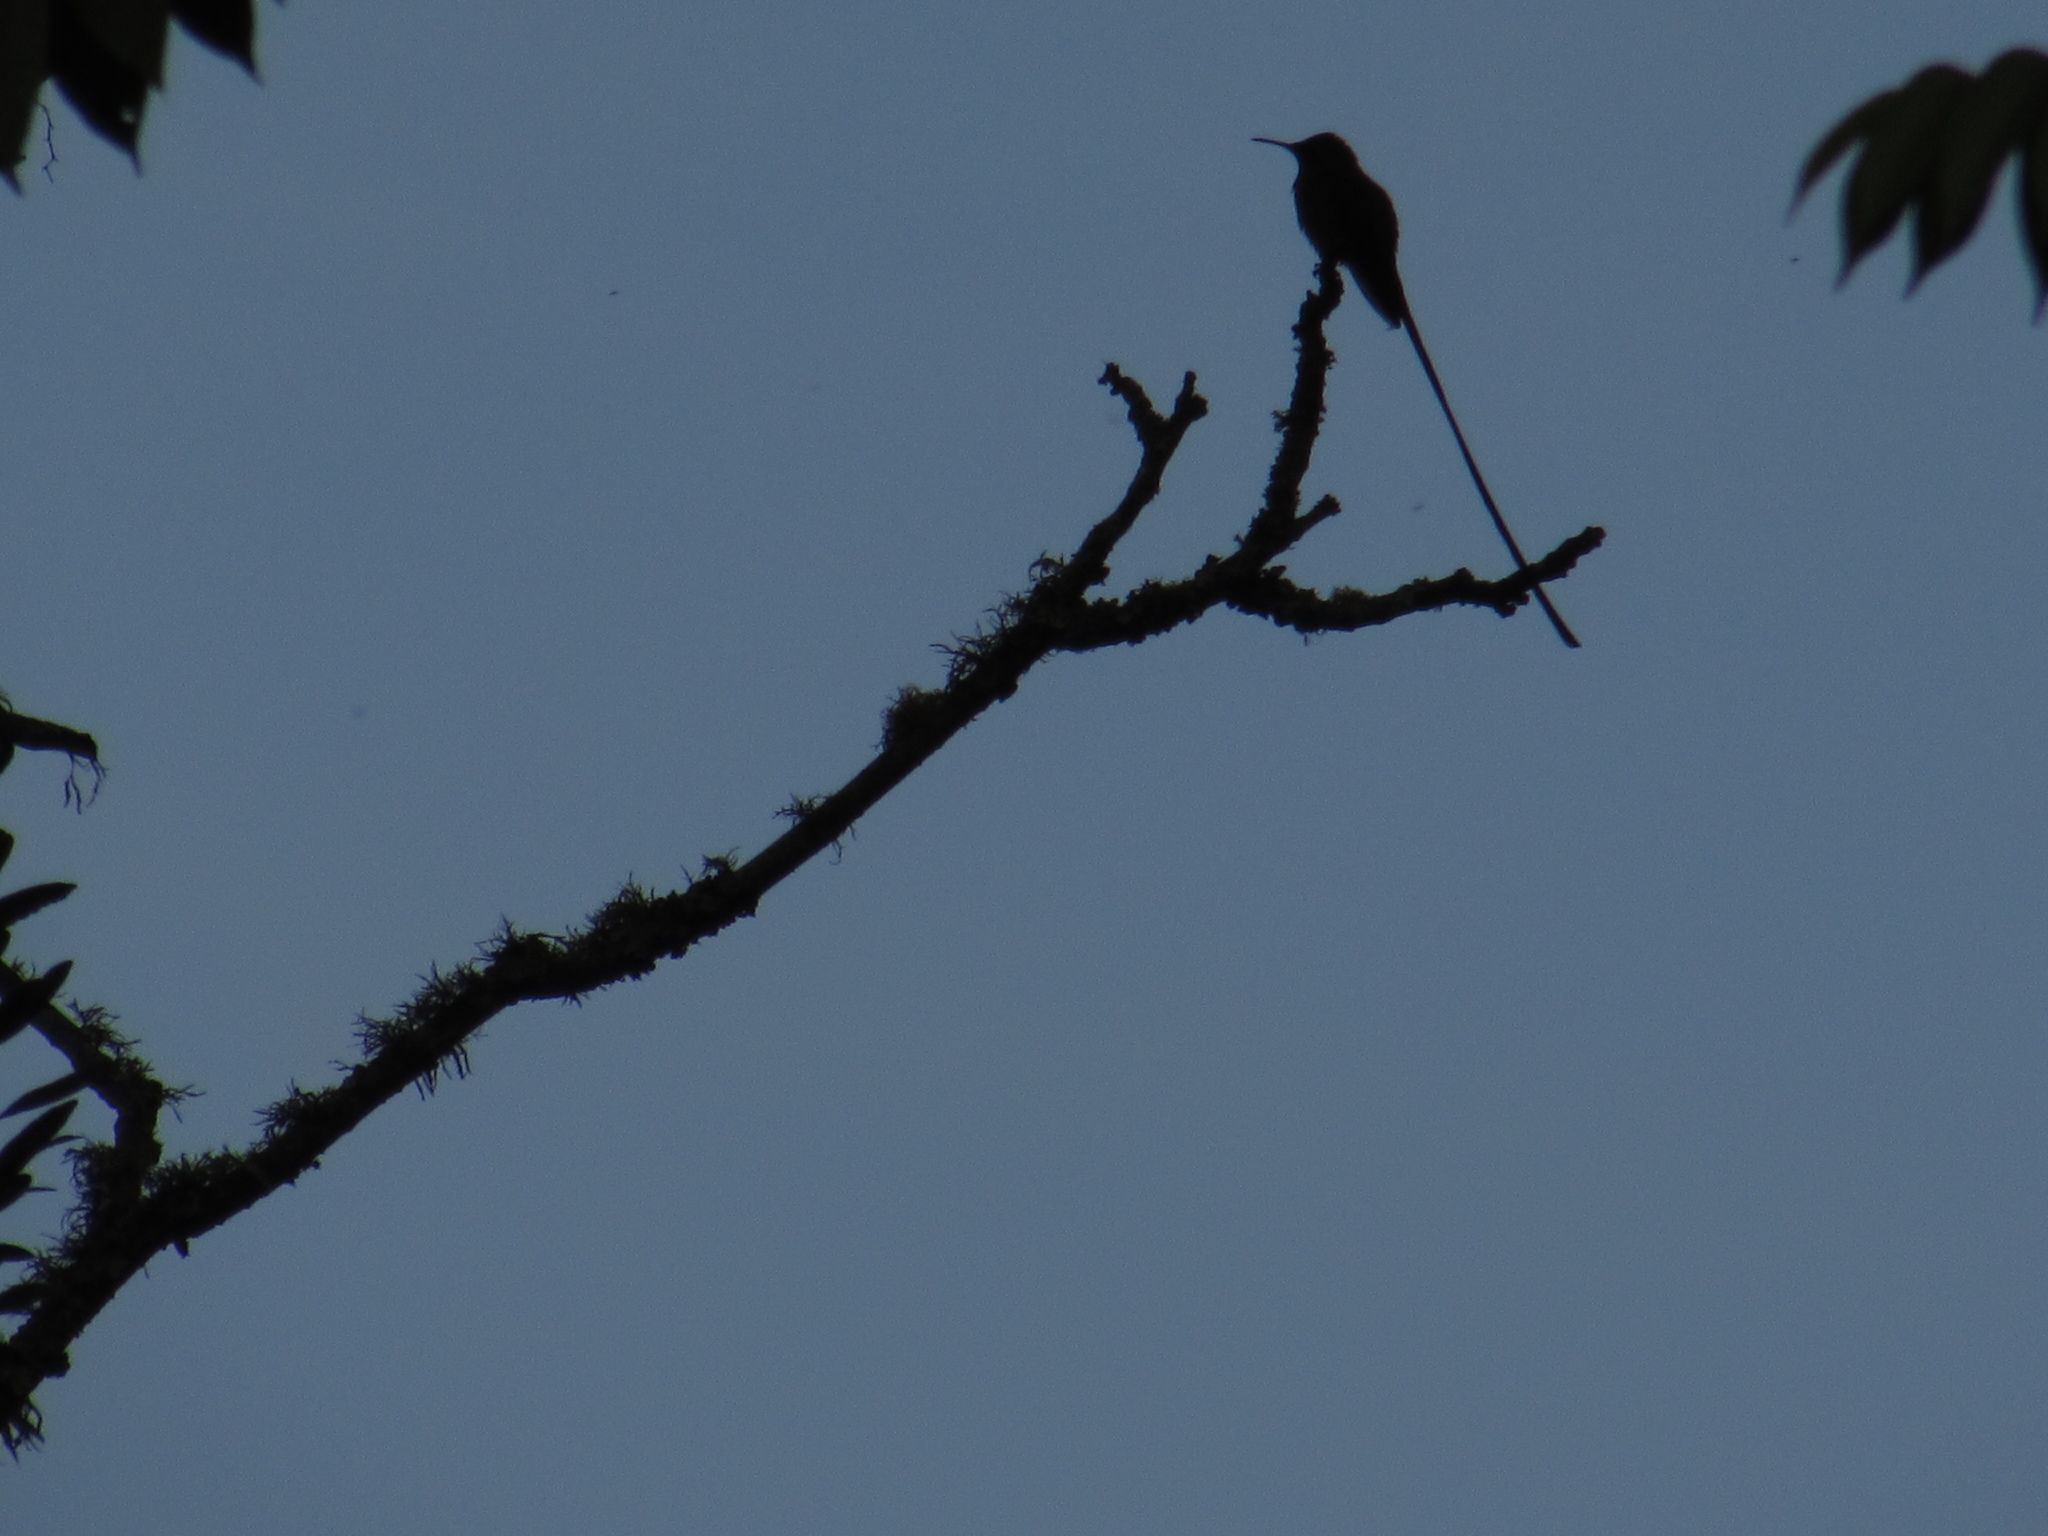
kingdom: Animalia
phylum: Chordata
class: Aves
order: Apodiformes
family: Trochilidae
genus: Lesbia
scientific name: Lesbia victoriae
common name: Black-tailed trainbearer
